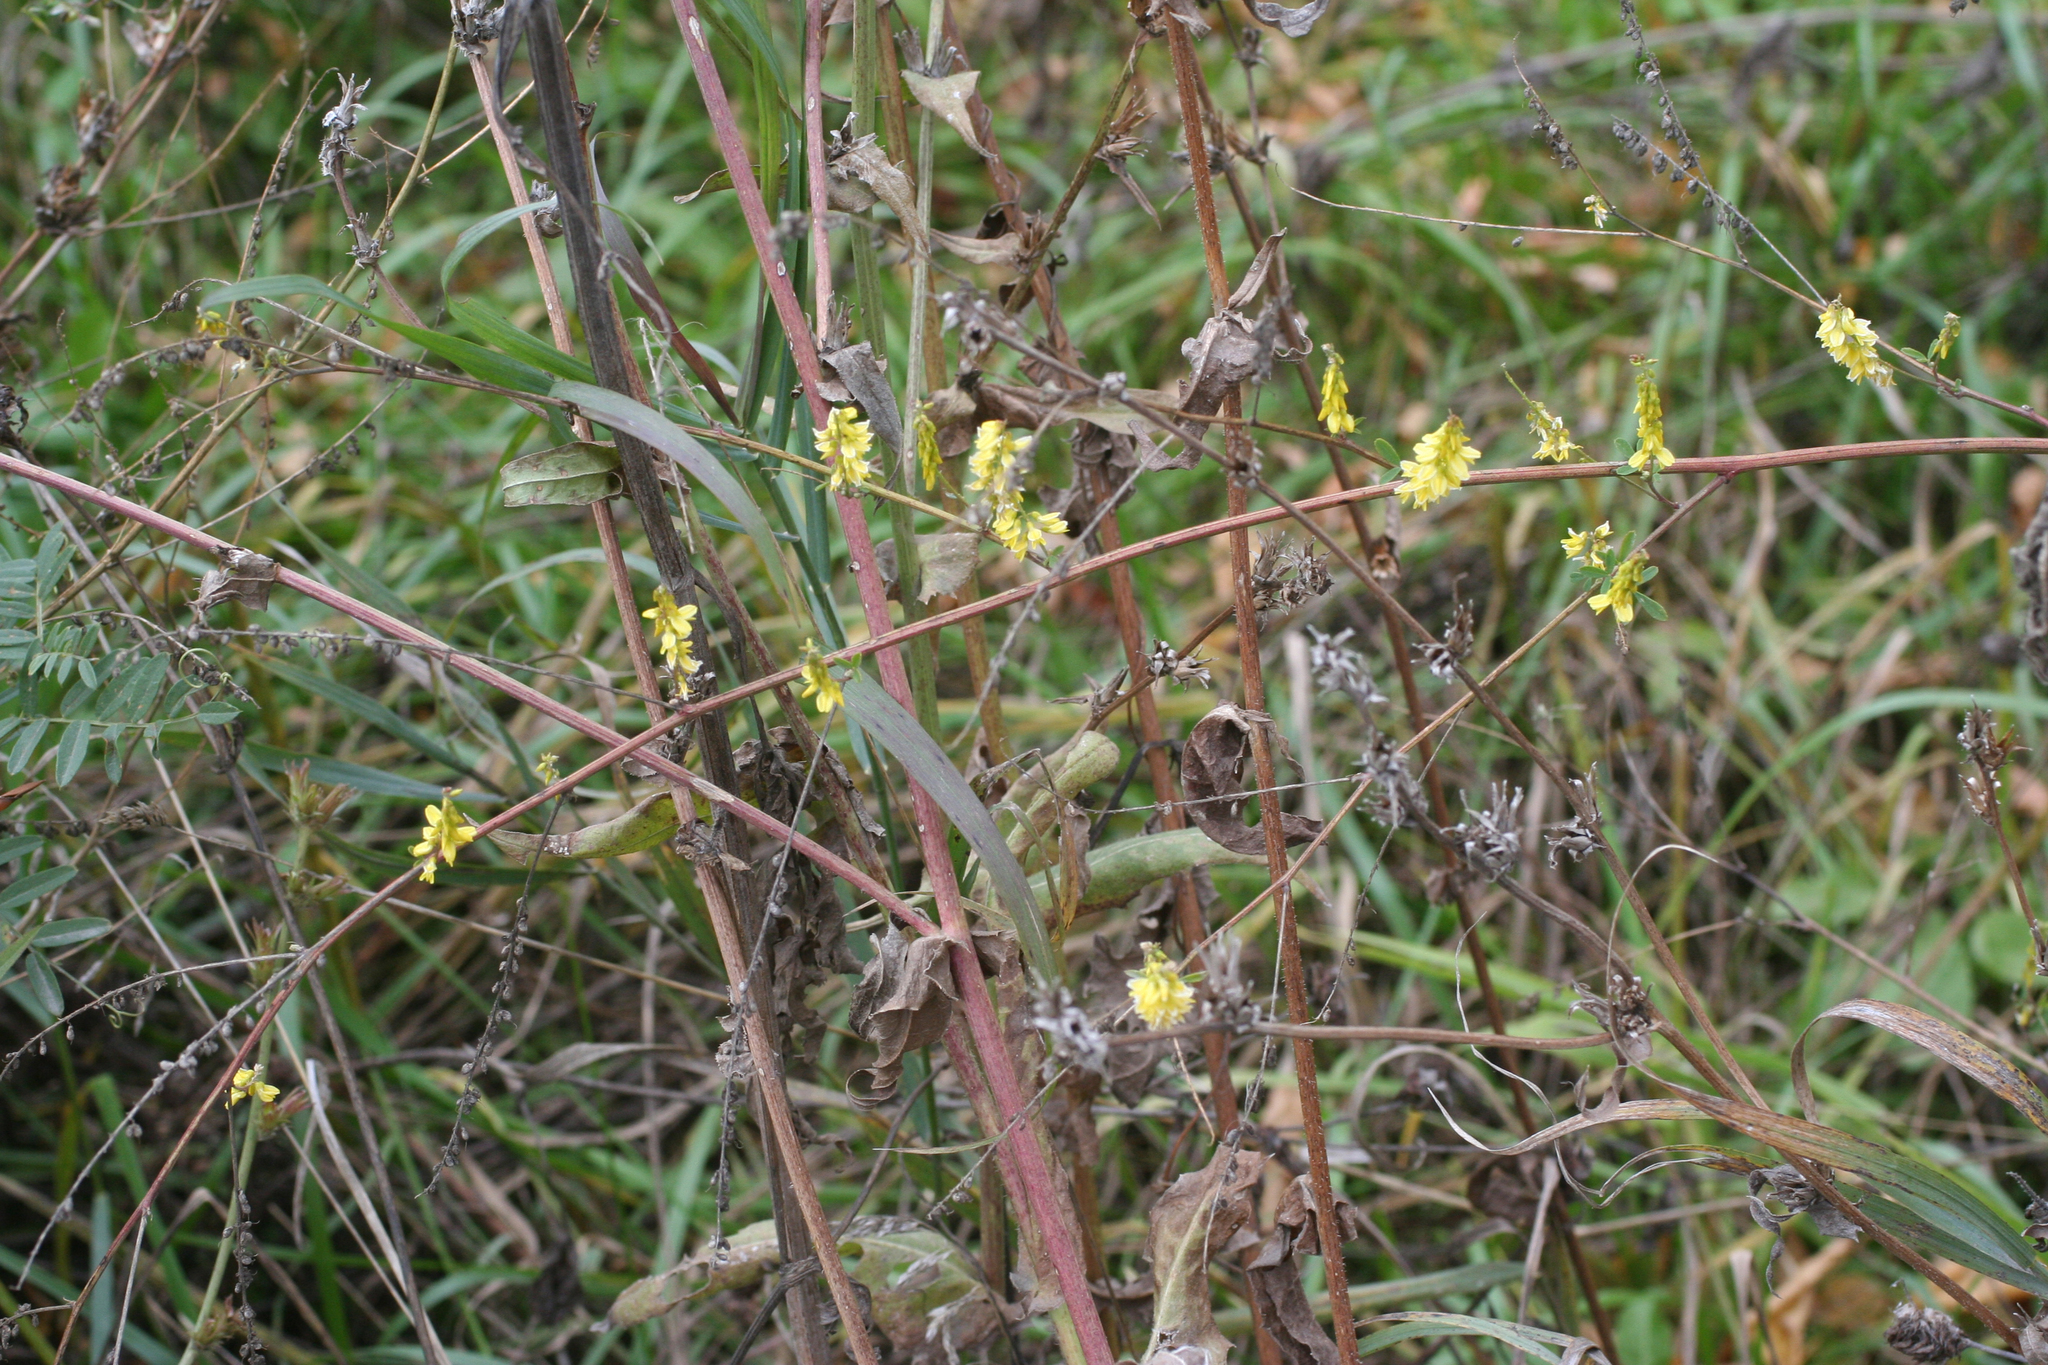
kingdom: Plantae
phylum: Tracheophyta
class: Magnoliopsida
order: Fabales
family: Fabaceae
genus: Melilotus
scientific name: Melilotus officinalis
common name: Sweetclover
